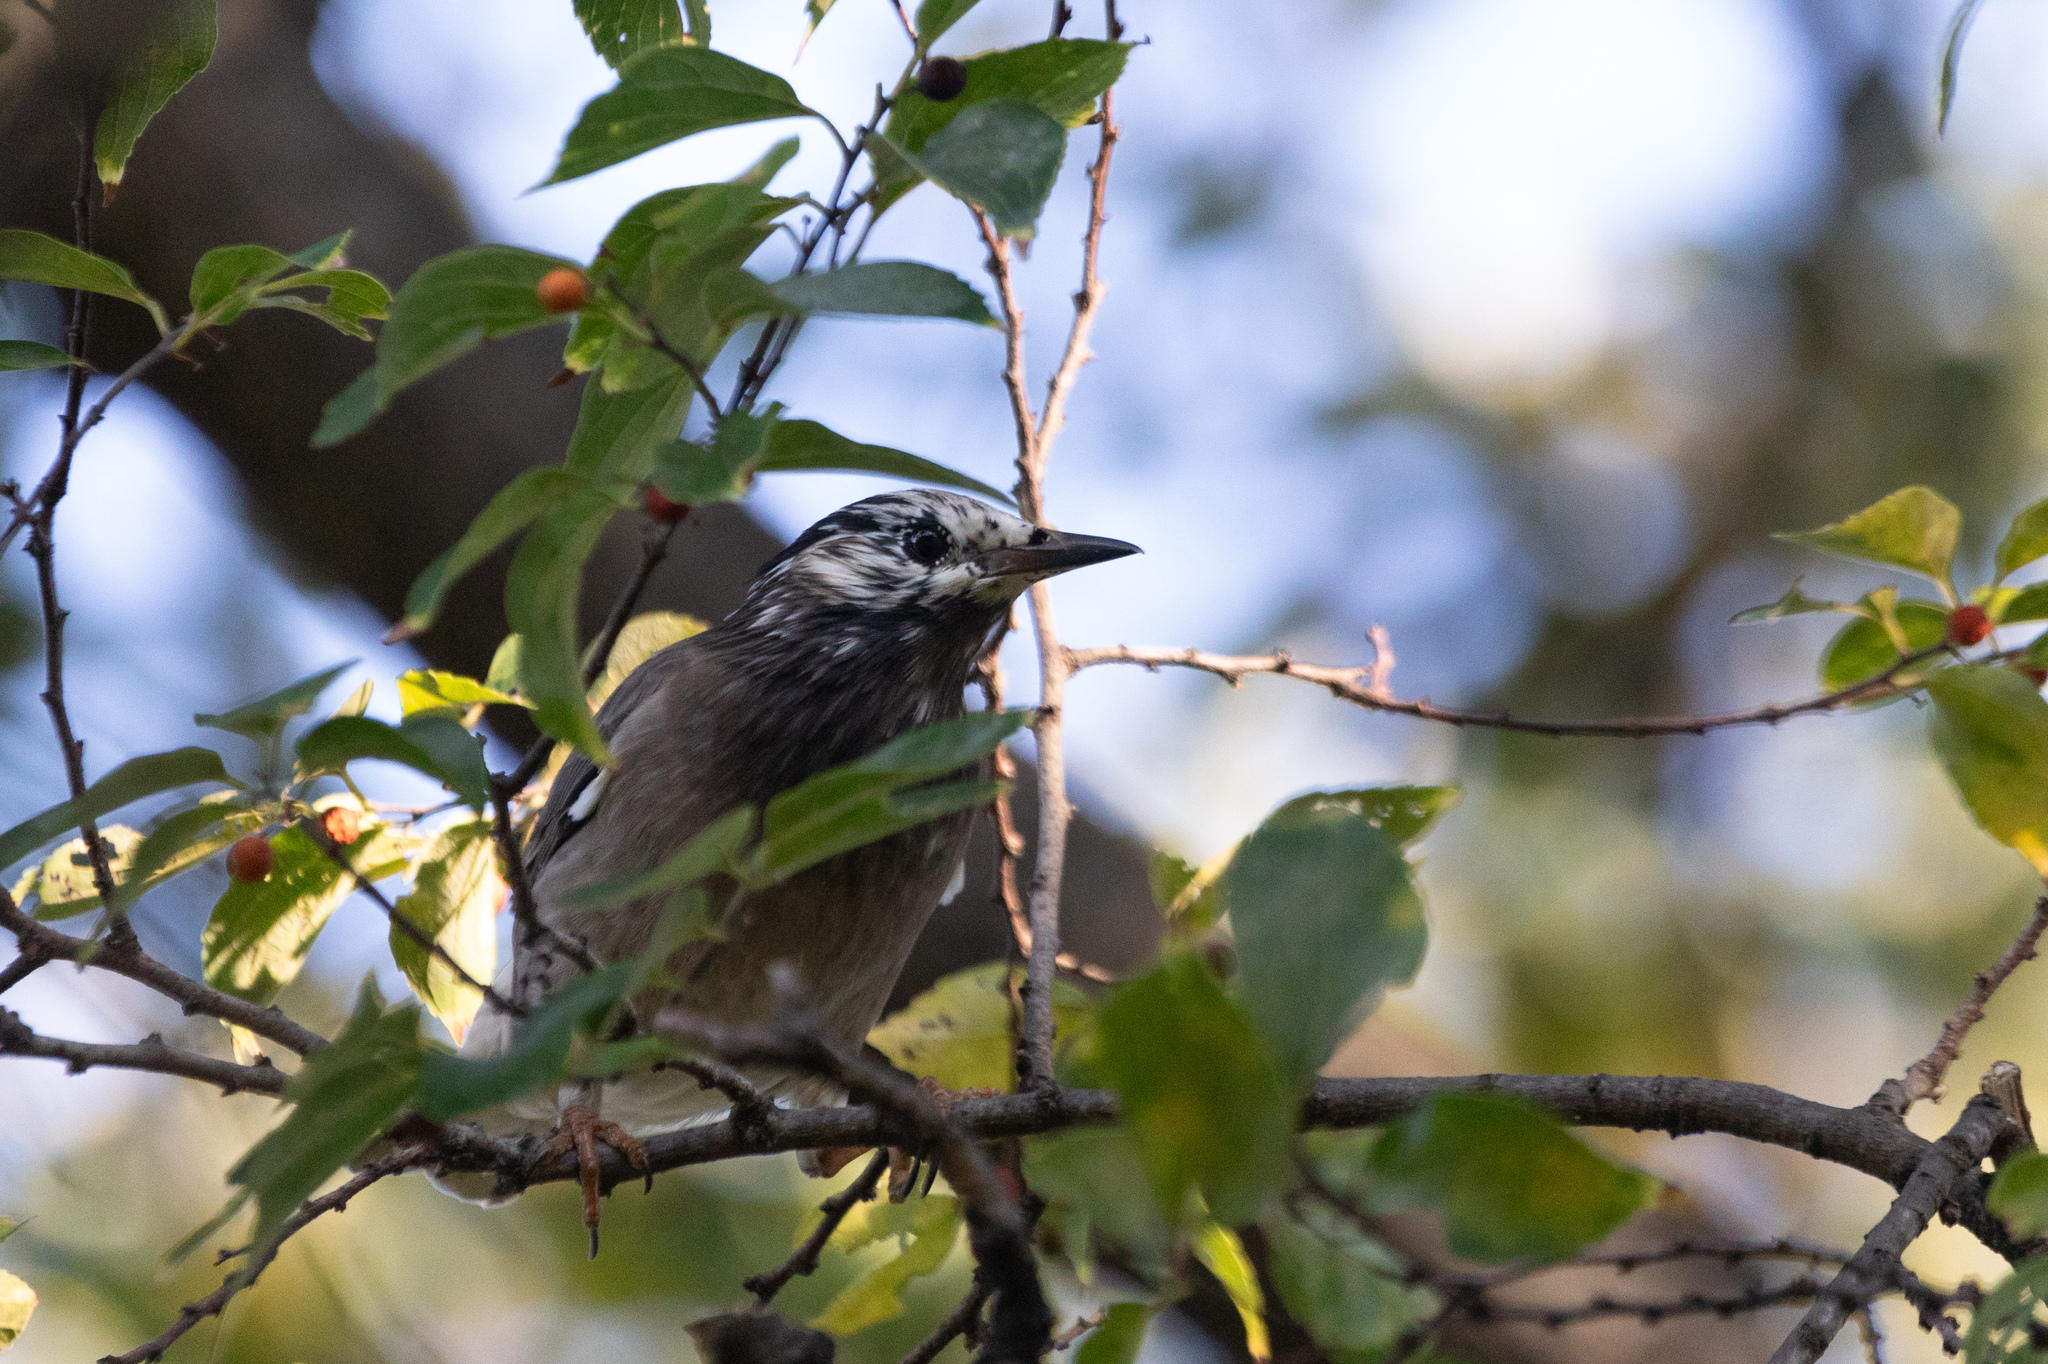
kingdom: Animalia
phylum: Chordata
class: Aves
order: Passeriformes
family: Sturnidae
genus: Spodiopsar
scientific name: Spodiopsar cineraceus
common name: White-cheeked starling
